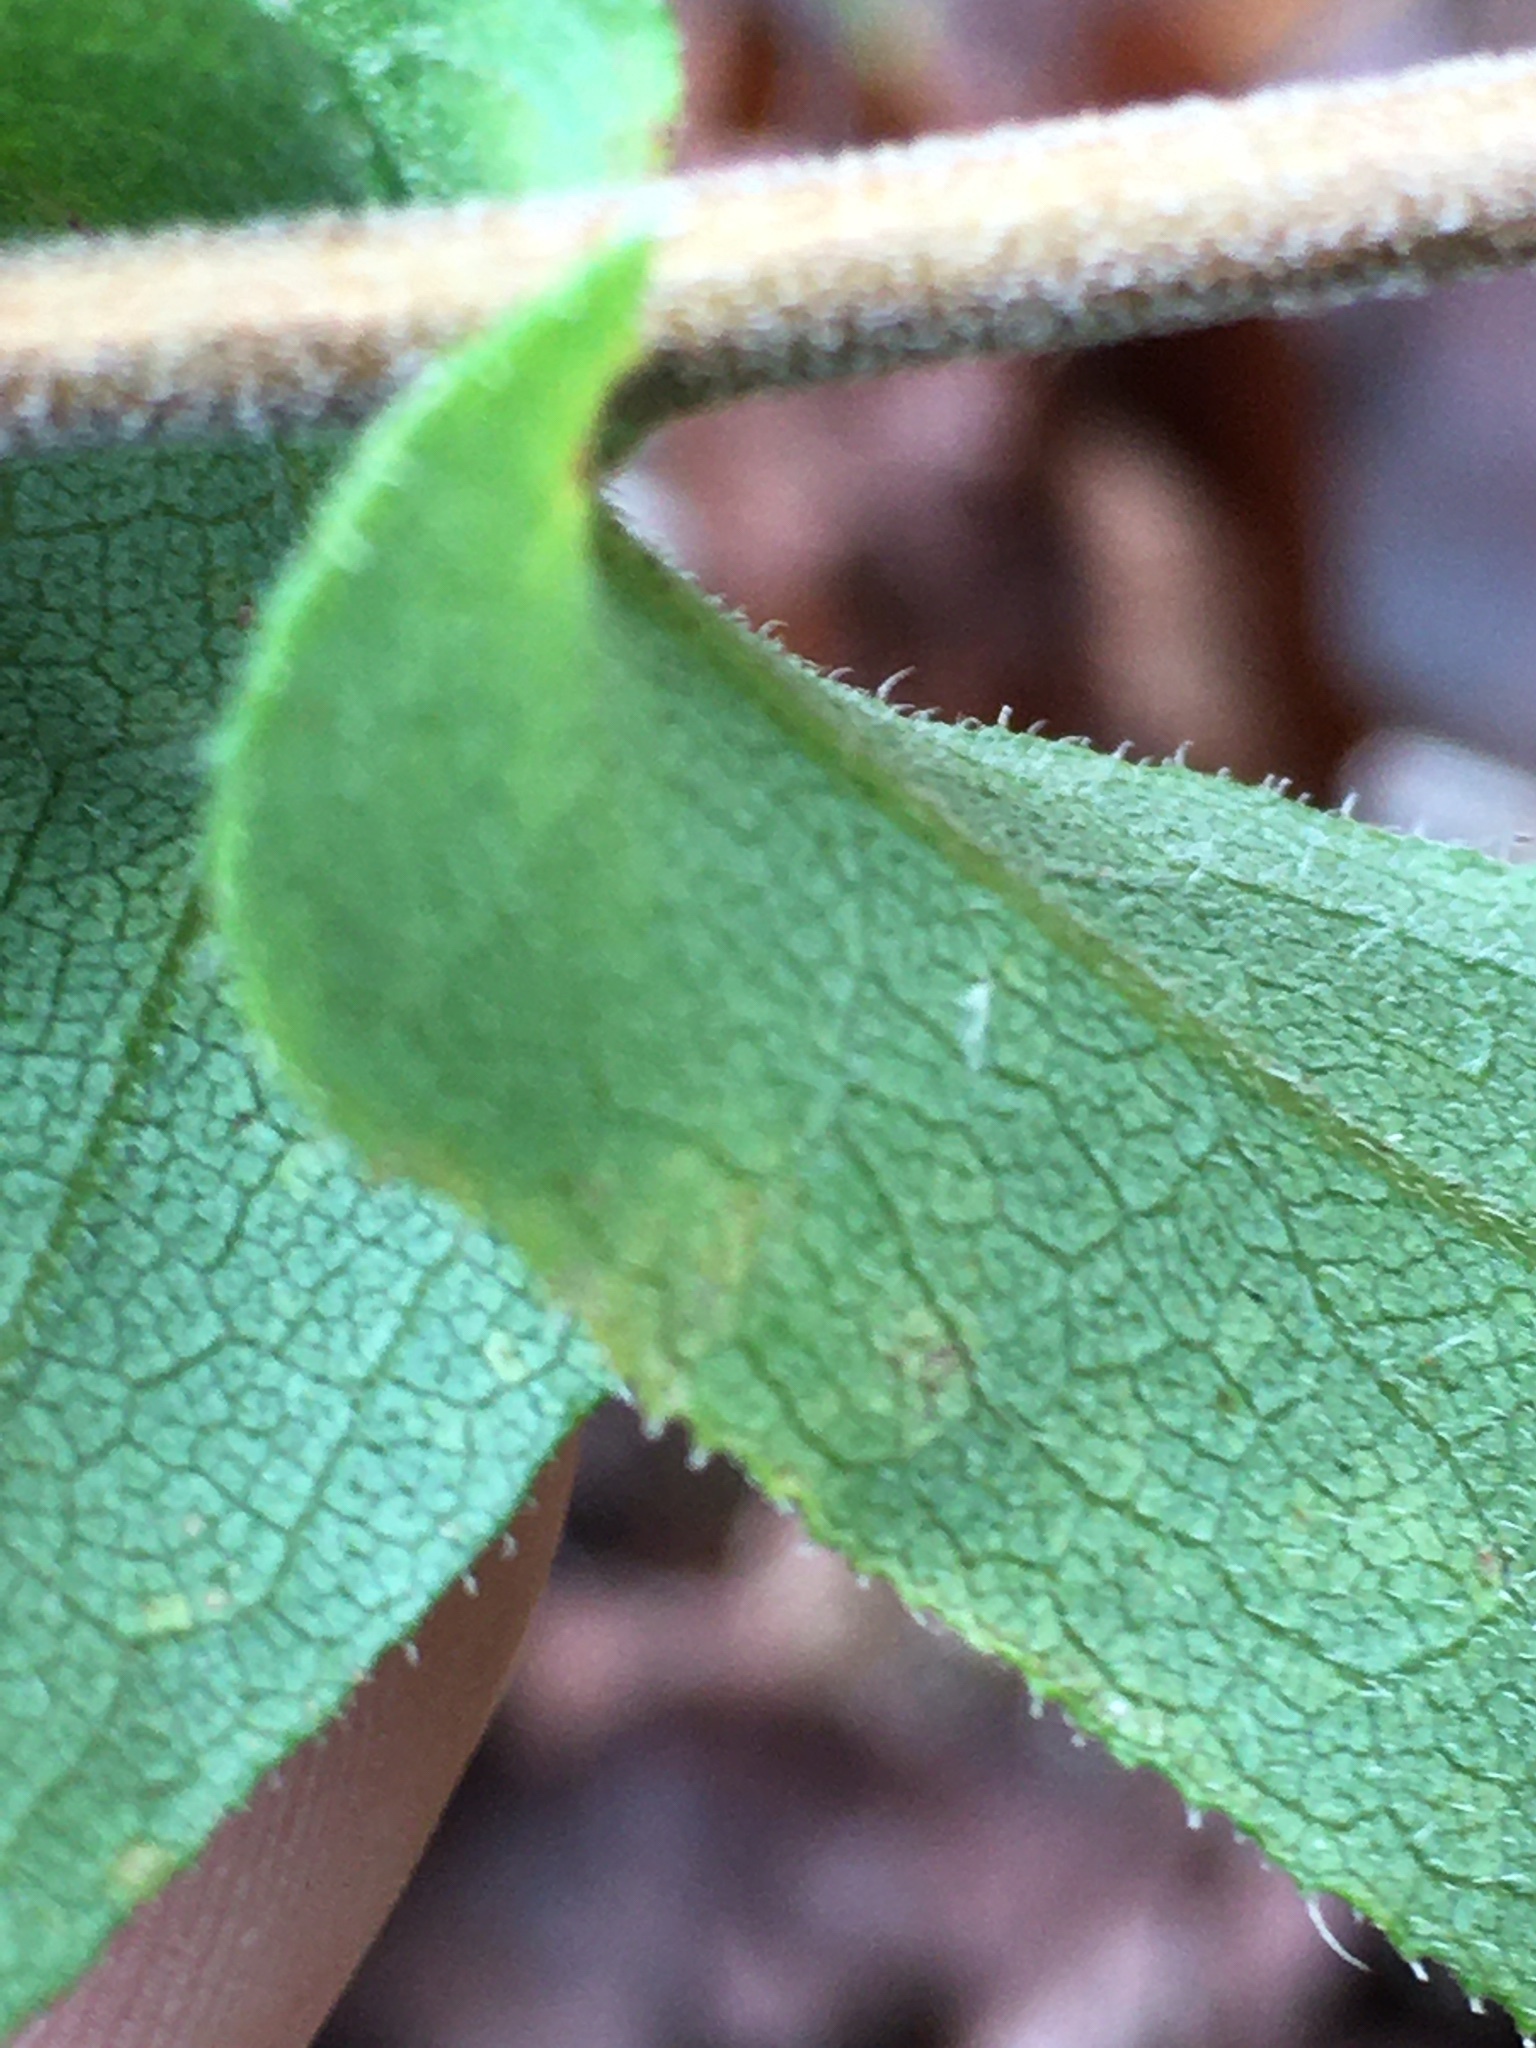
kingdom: Plantae
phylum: Tracheophyta
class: Magnoliopsida
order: Asterales
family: Asteraceae
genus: Symphyotrichum
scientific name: Symphyotrichum patens
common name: Late purple aster
